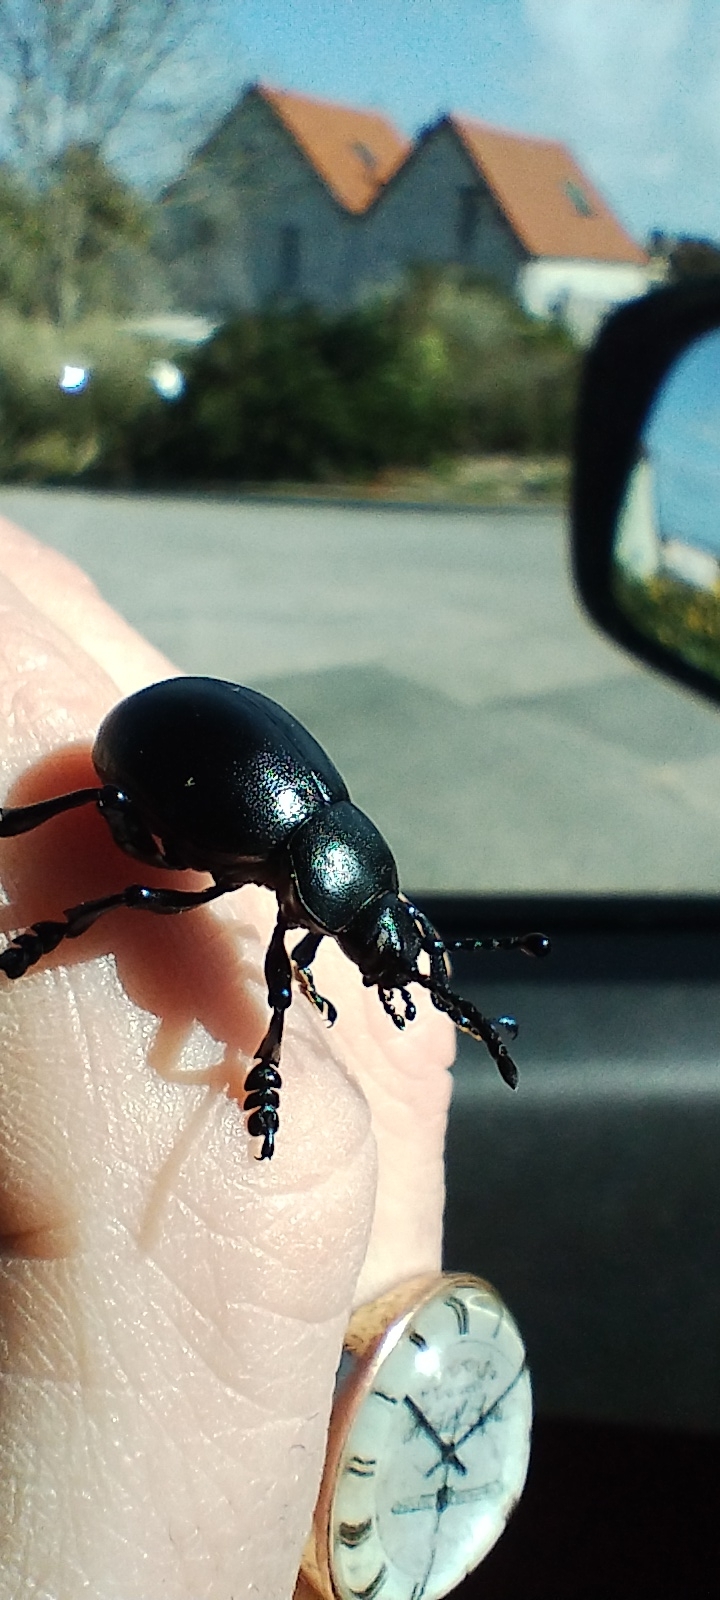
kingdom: Animalia
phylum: Arthropoda
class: Insecta
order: Coleoptera
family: Chrysomelidae
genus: Timarcha
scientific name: Timarcha tenebricosa
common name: Bloody-nosed beetle
